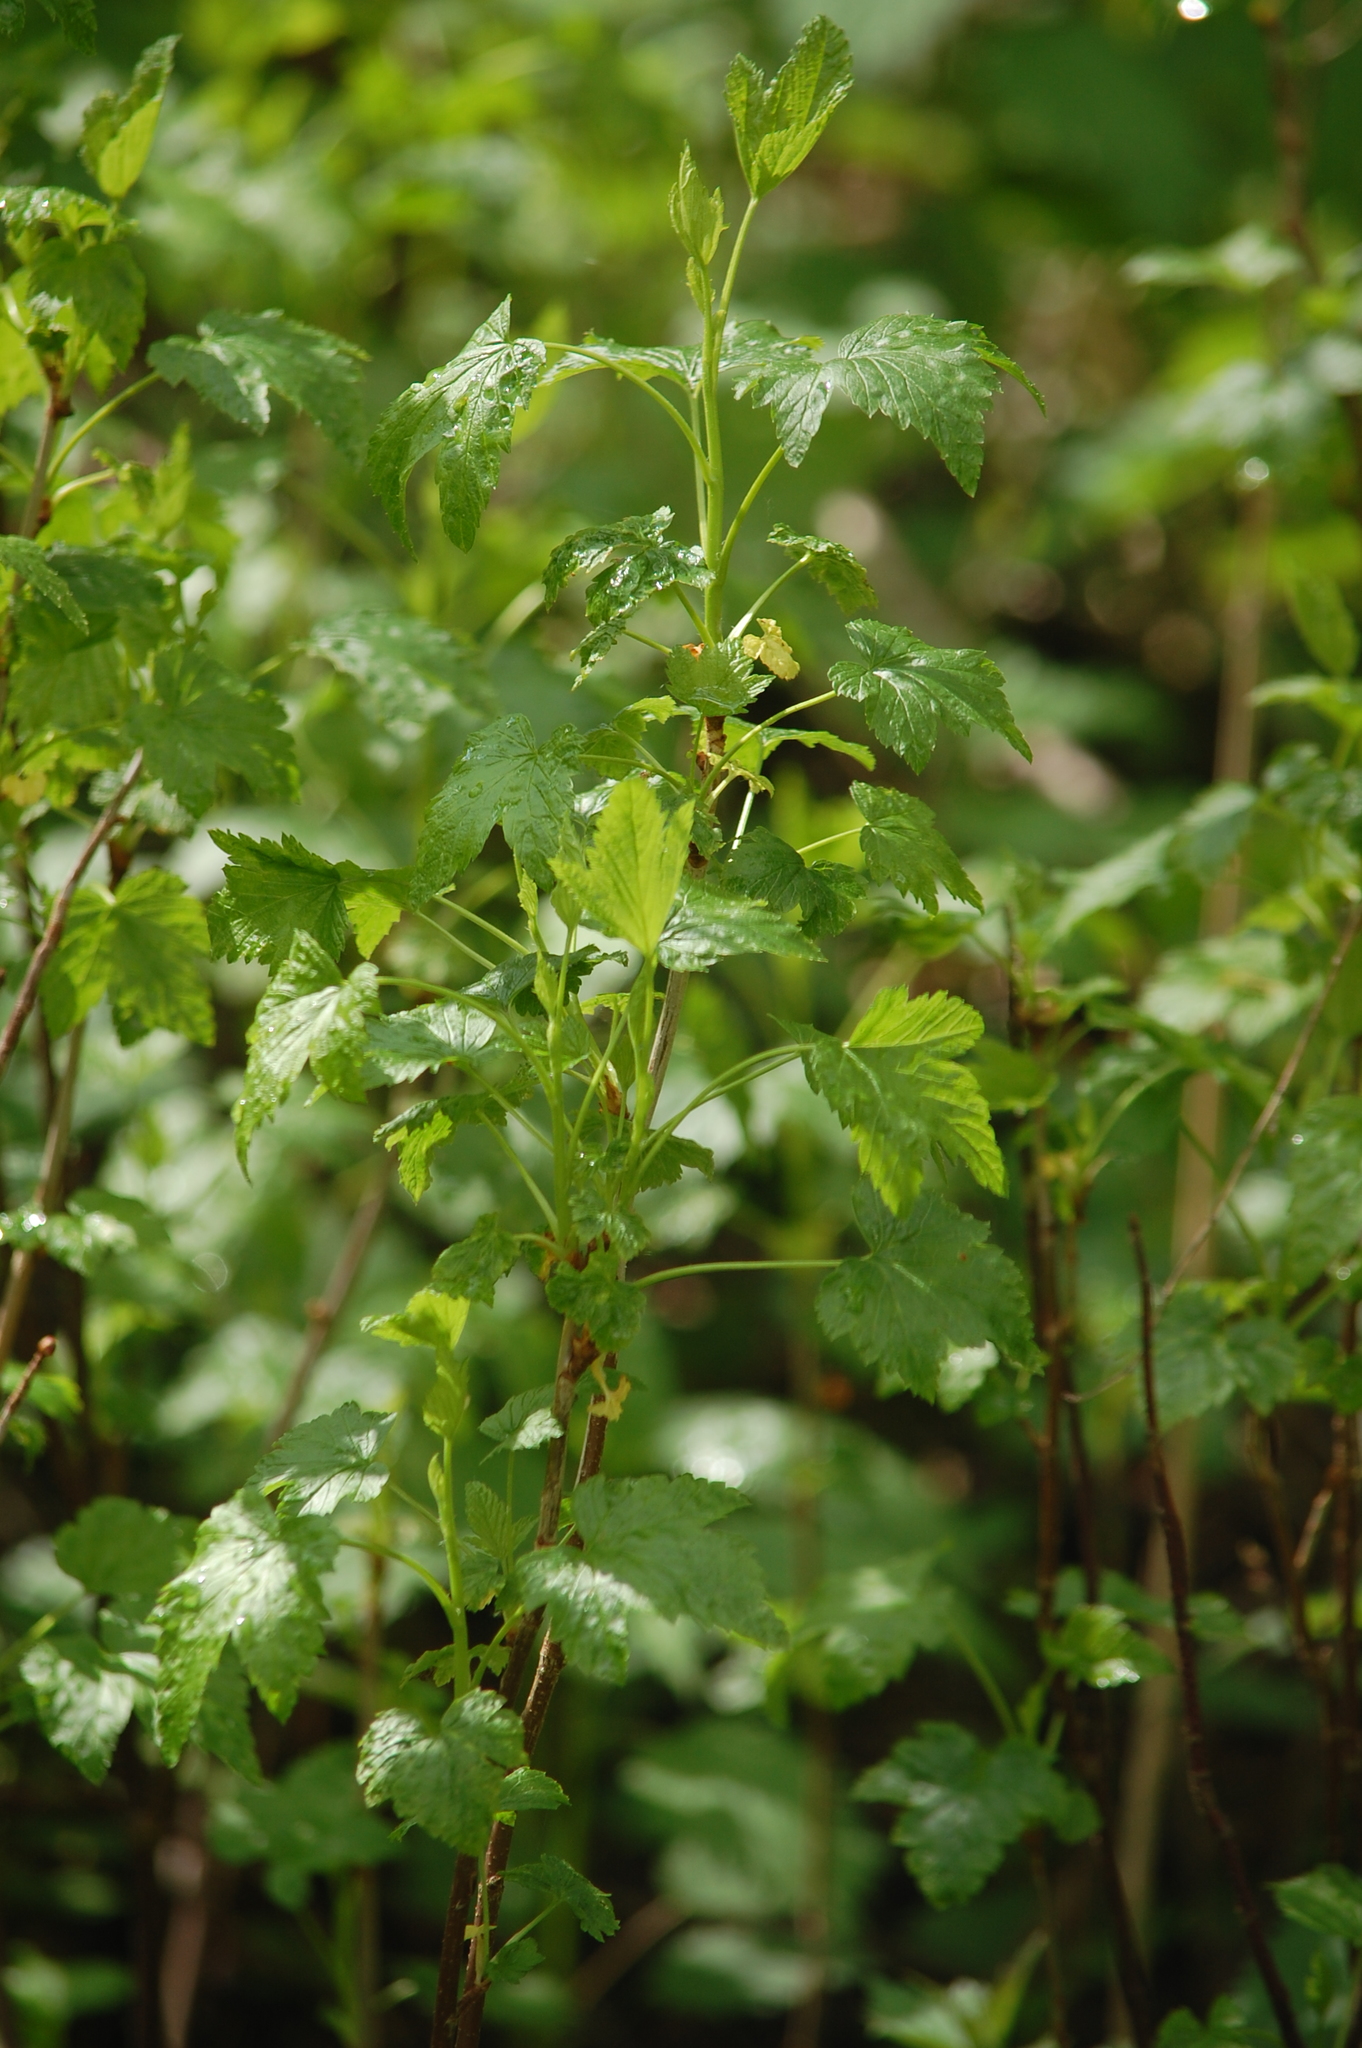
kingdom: Plantae
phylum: Tracheophyta
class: Magnoliopsida
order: Saxifragales
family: Grossulariaceae
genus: Ribes
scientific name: Ribes nigrum
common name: Black currant
